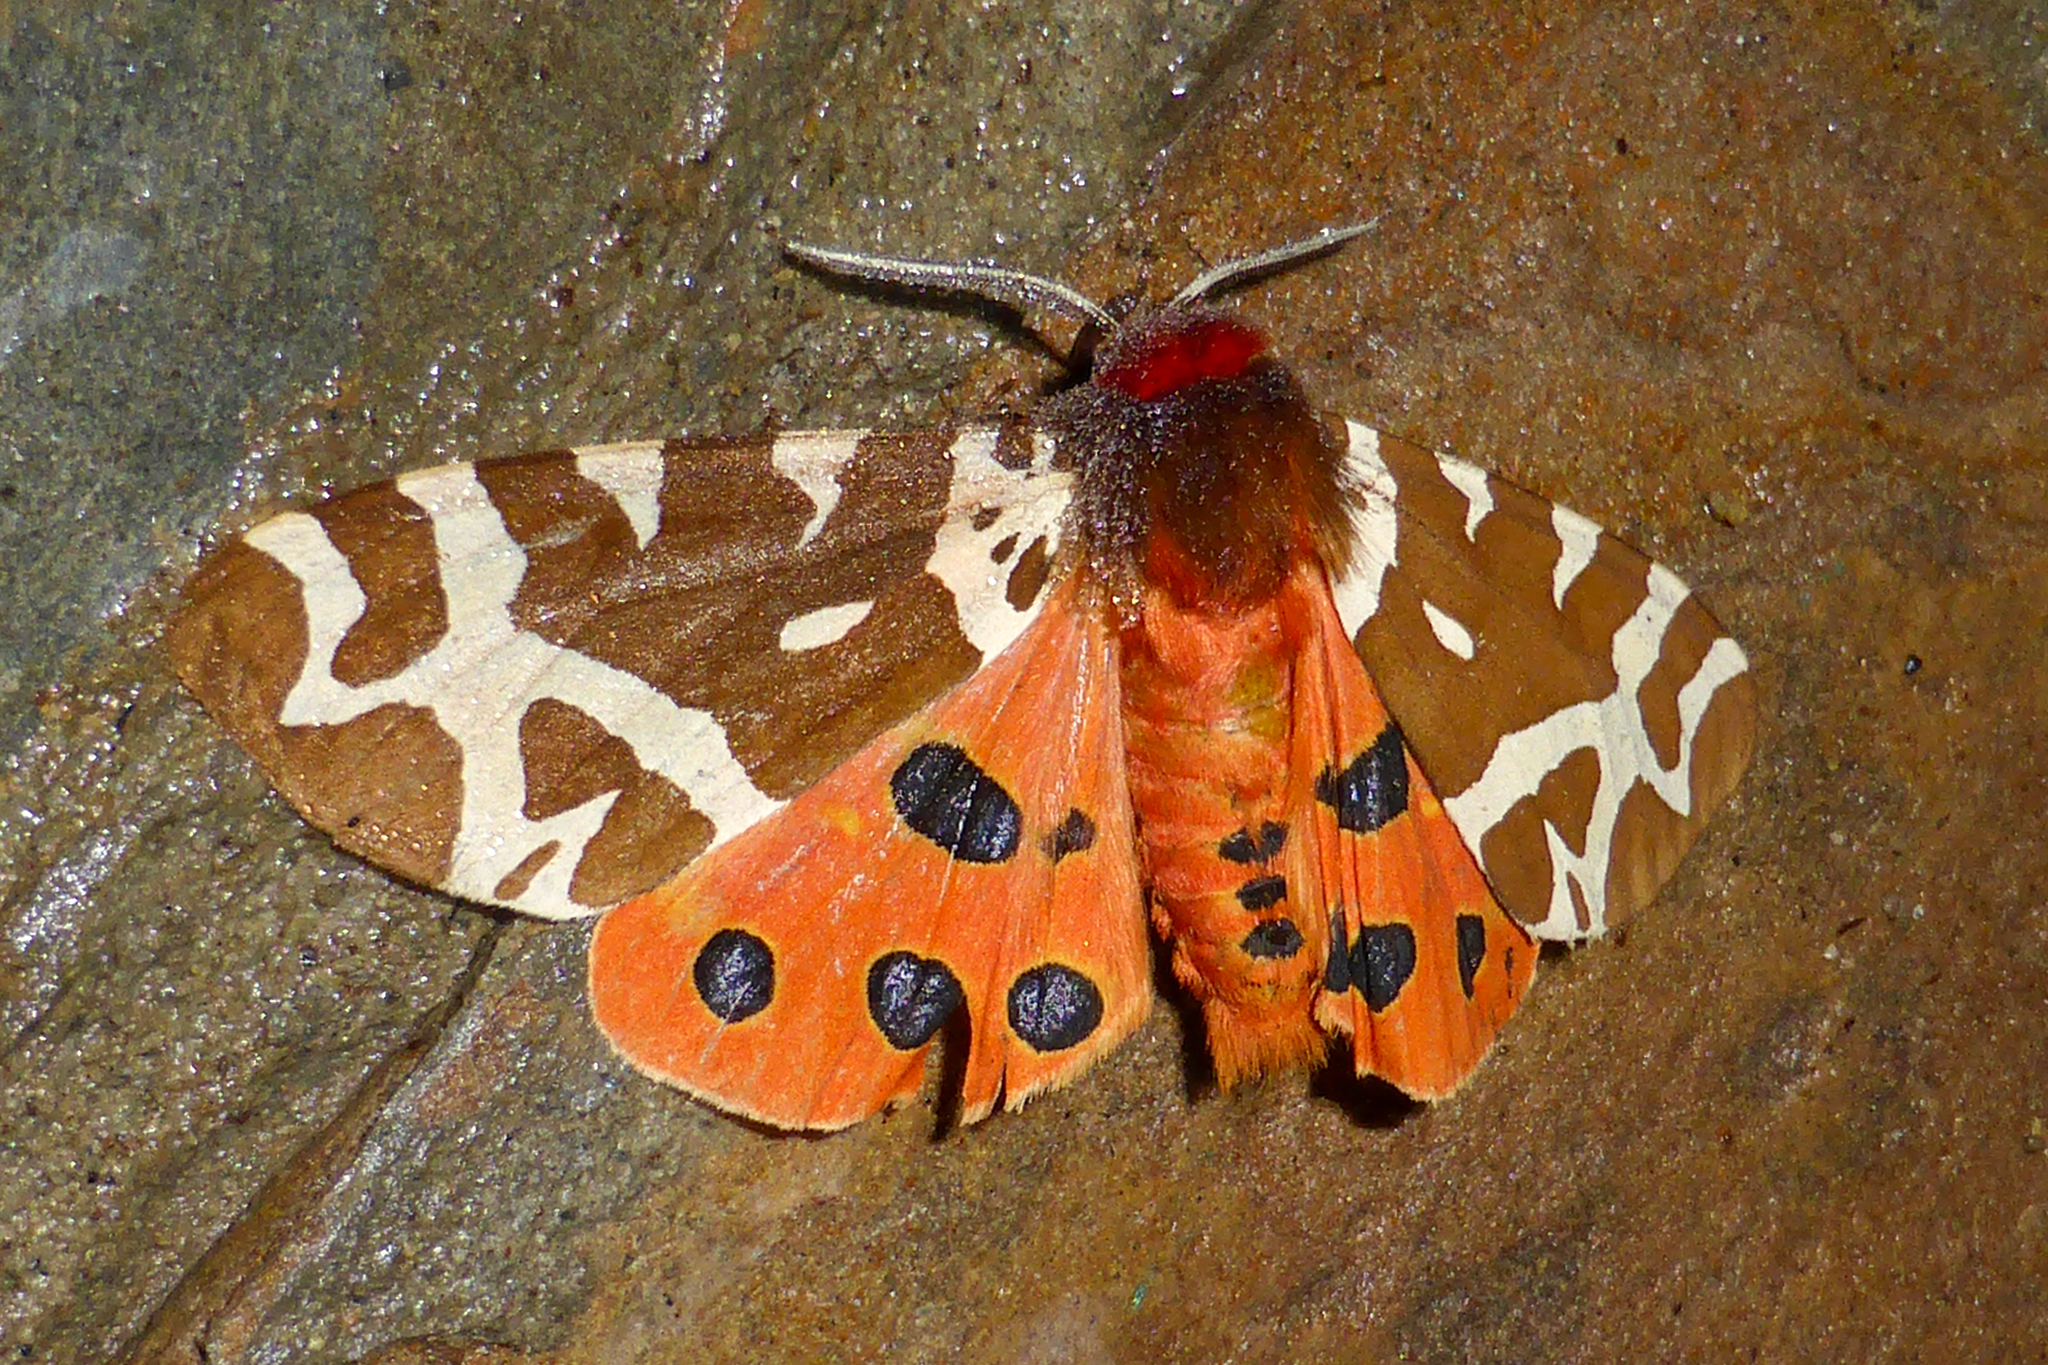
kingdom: Animalia
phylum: Arthropoda
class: Insecta
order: Lepidoptera
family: Erebidae
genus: Arctia
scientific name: Arctia caja
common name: Garden tiger
